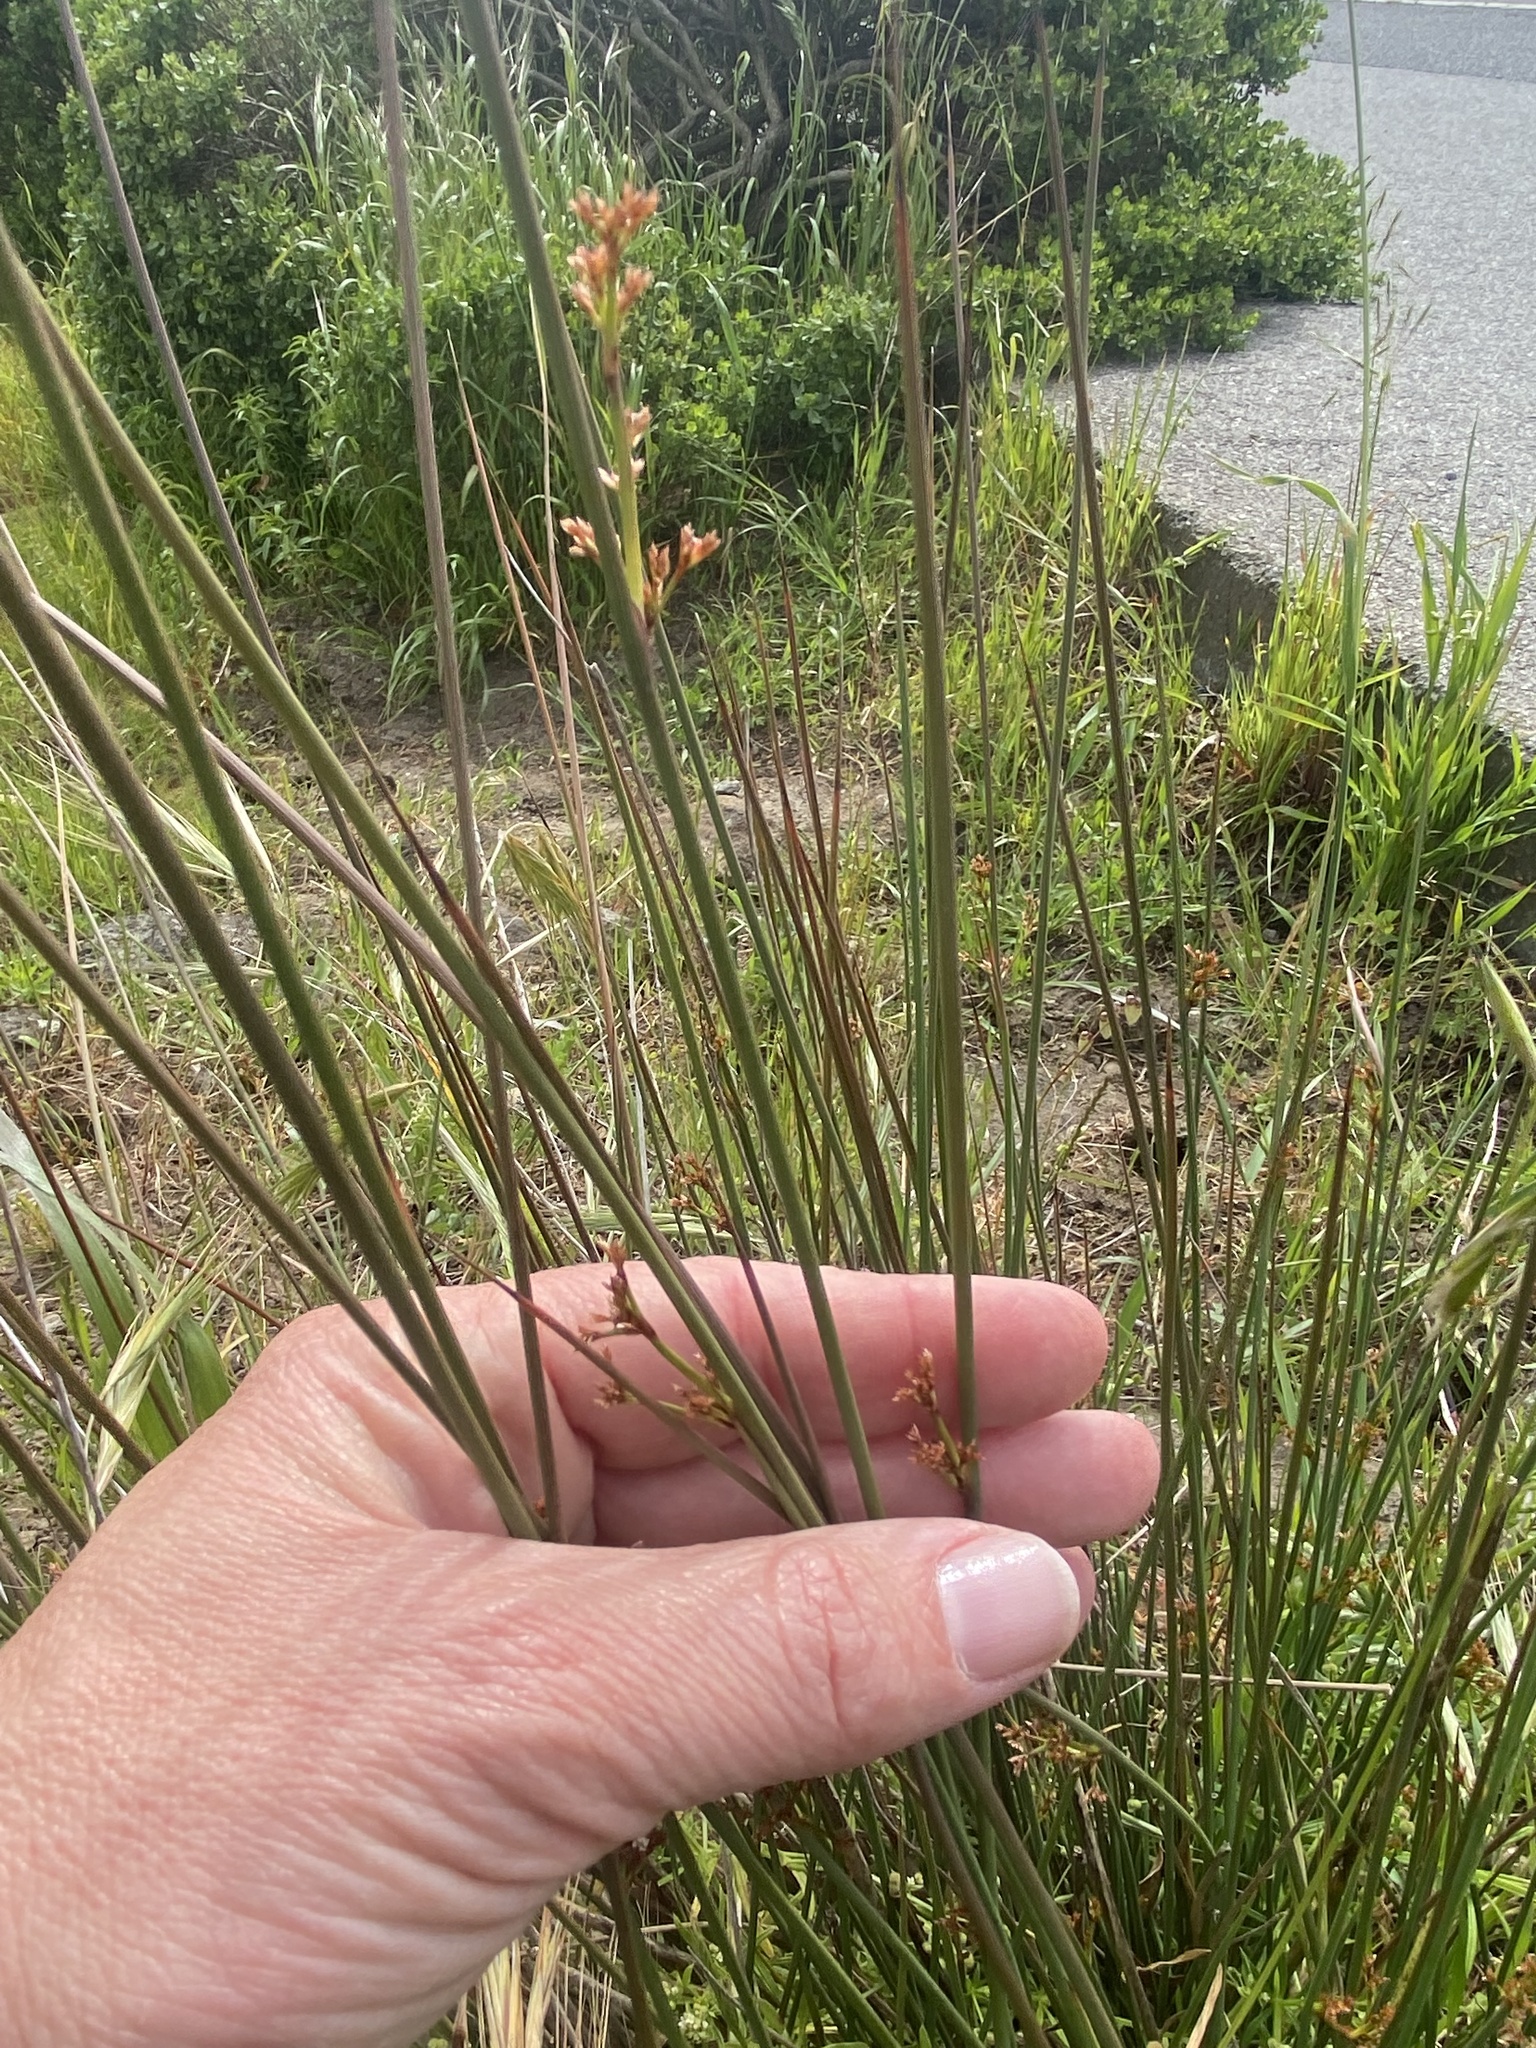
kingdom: Plantae
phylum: Tracheophyta
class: Liliopsida
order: Poales
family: Juncaceae
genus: Juncus
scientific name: Juncus patens
